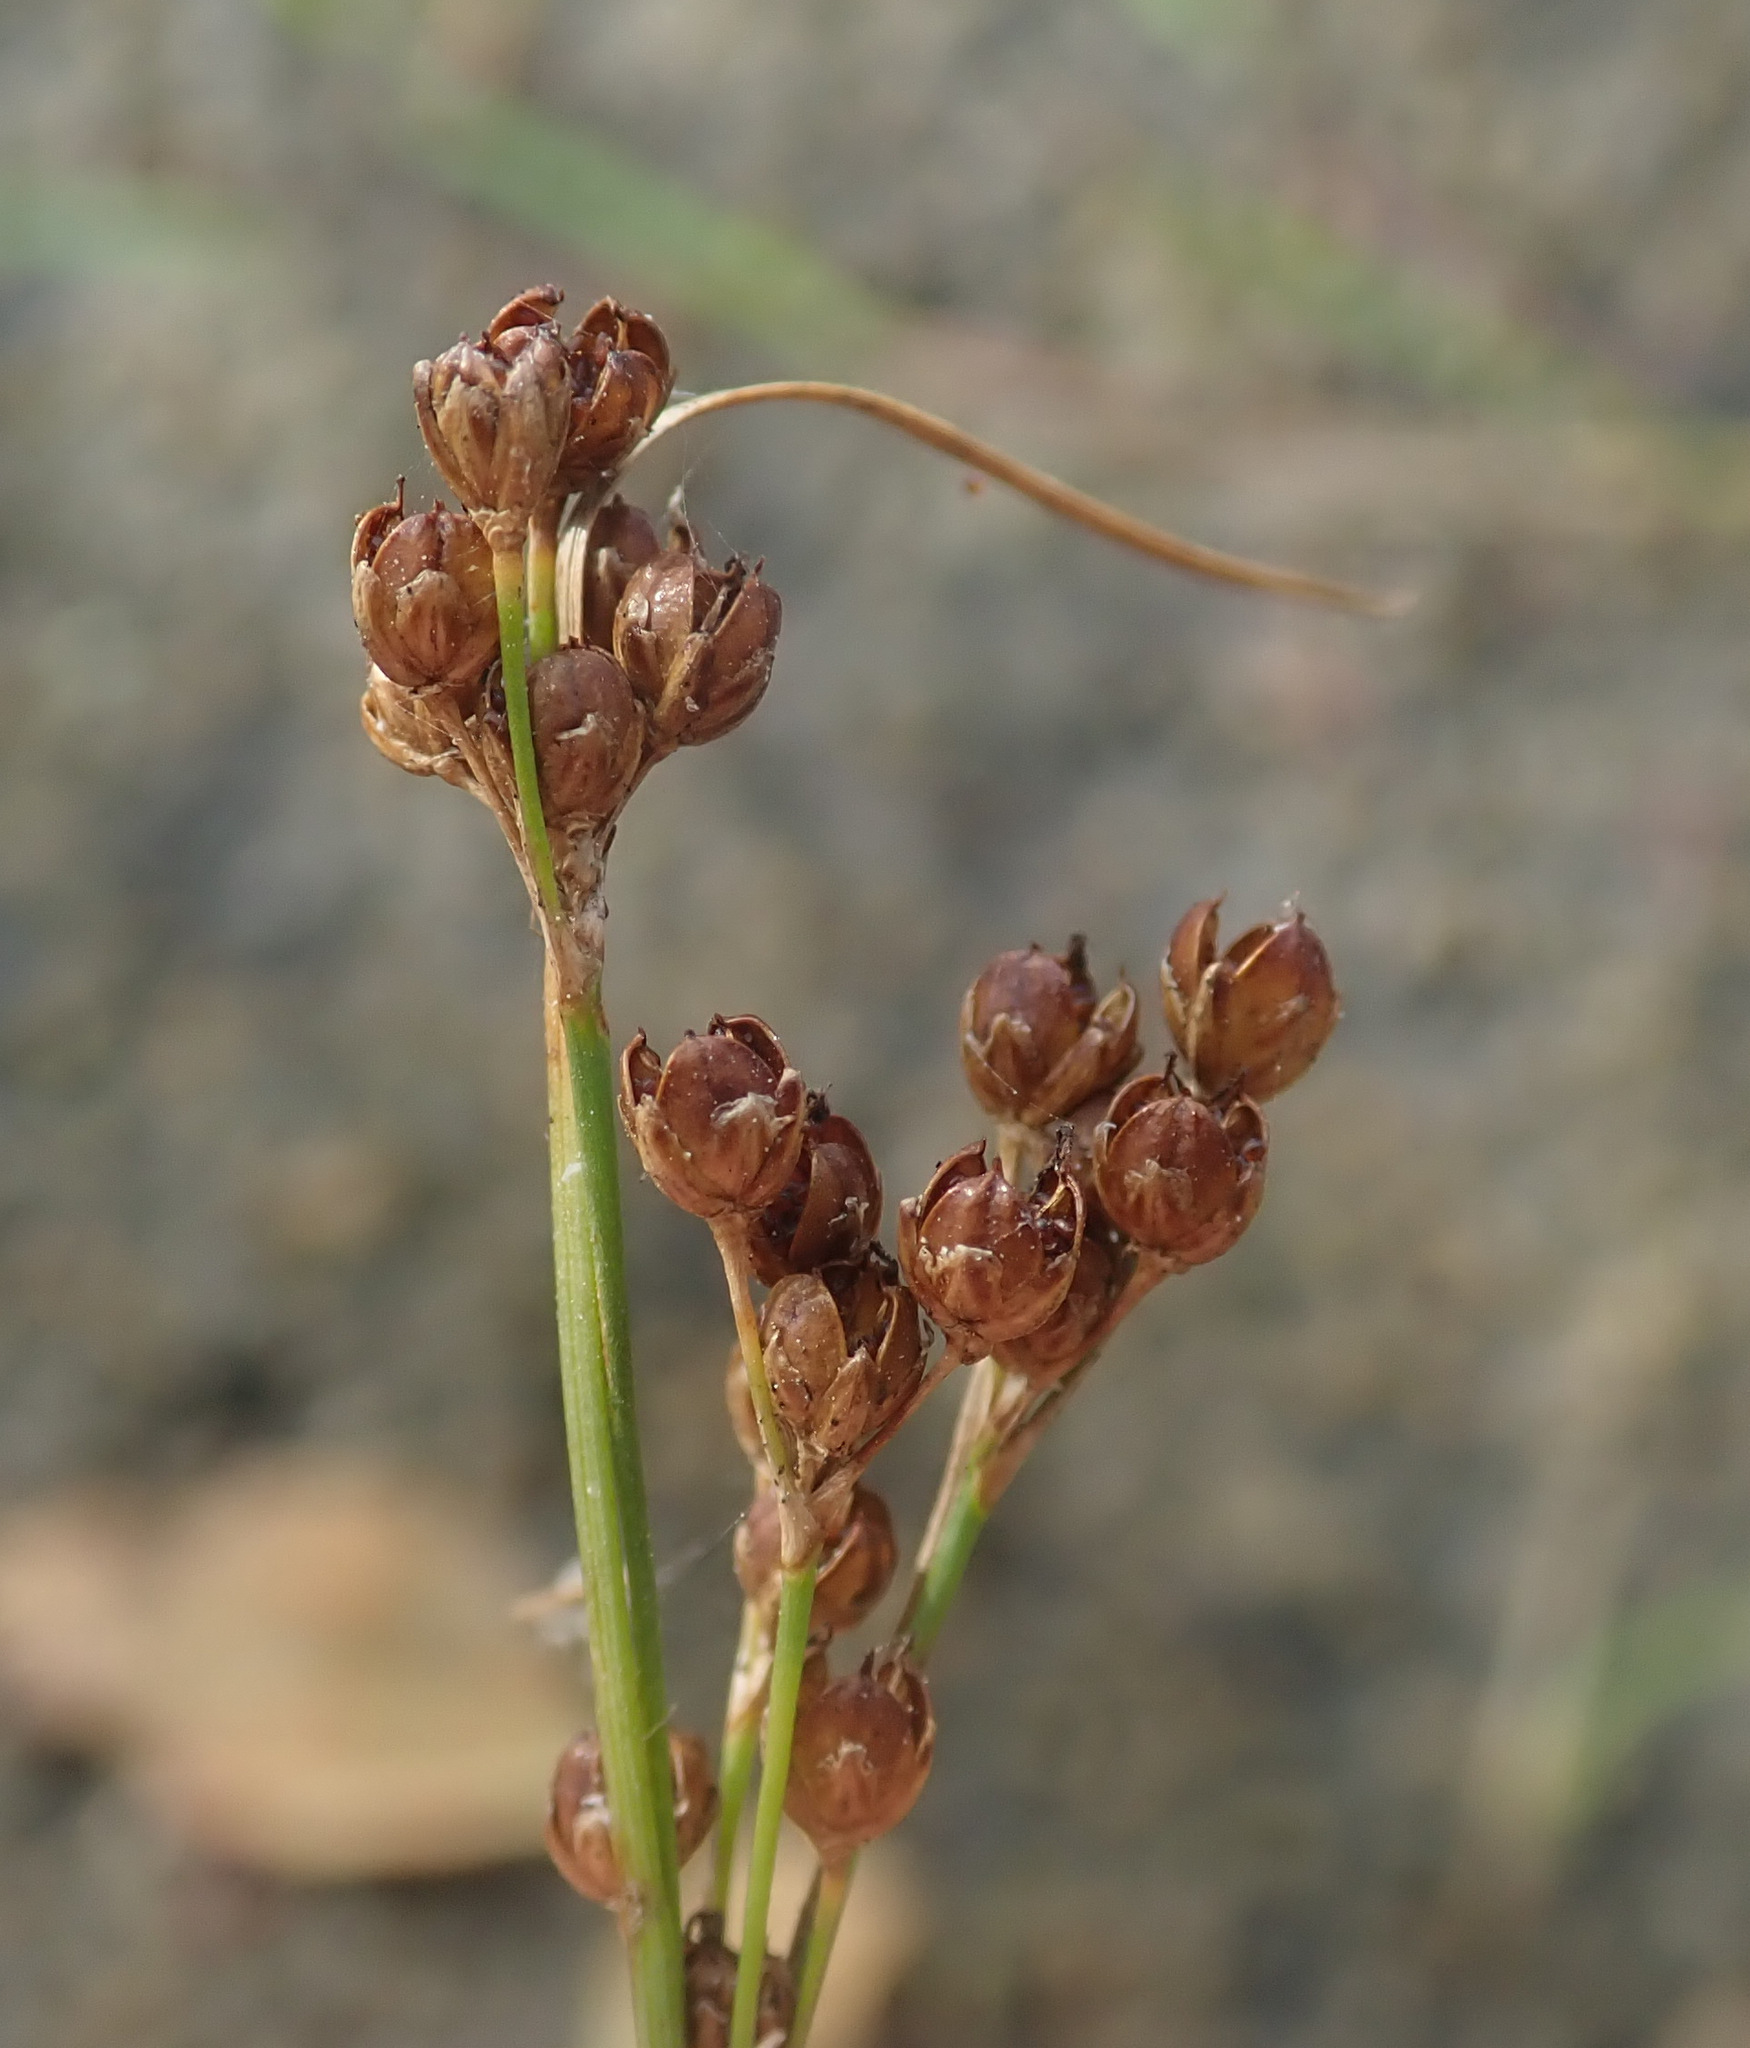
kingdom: Plantae
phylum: Tracheophyta
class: Liliopsida
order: Poales
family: Juncaceae
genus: Juncus
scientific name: Juncus compressus
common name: Round-fruited rush
